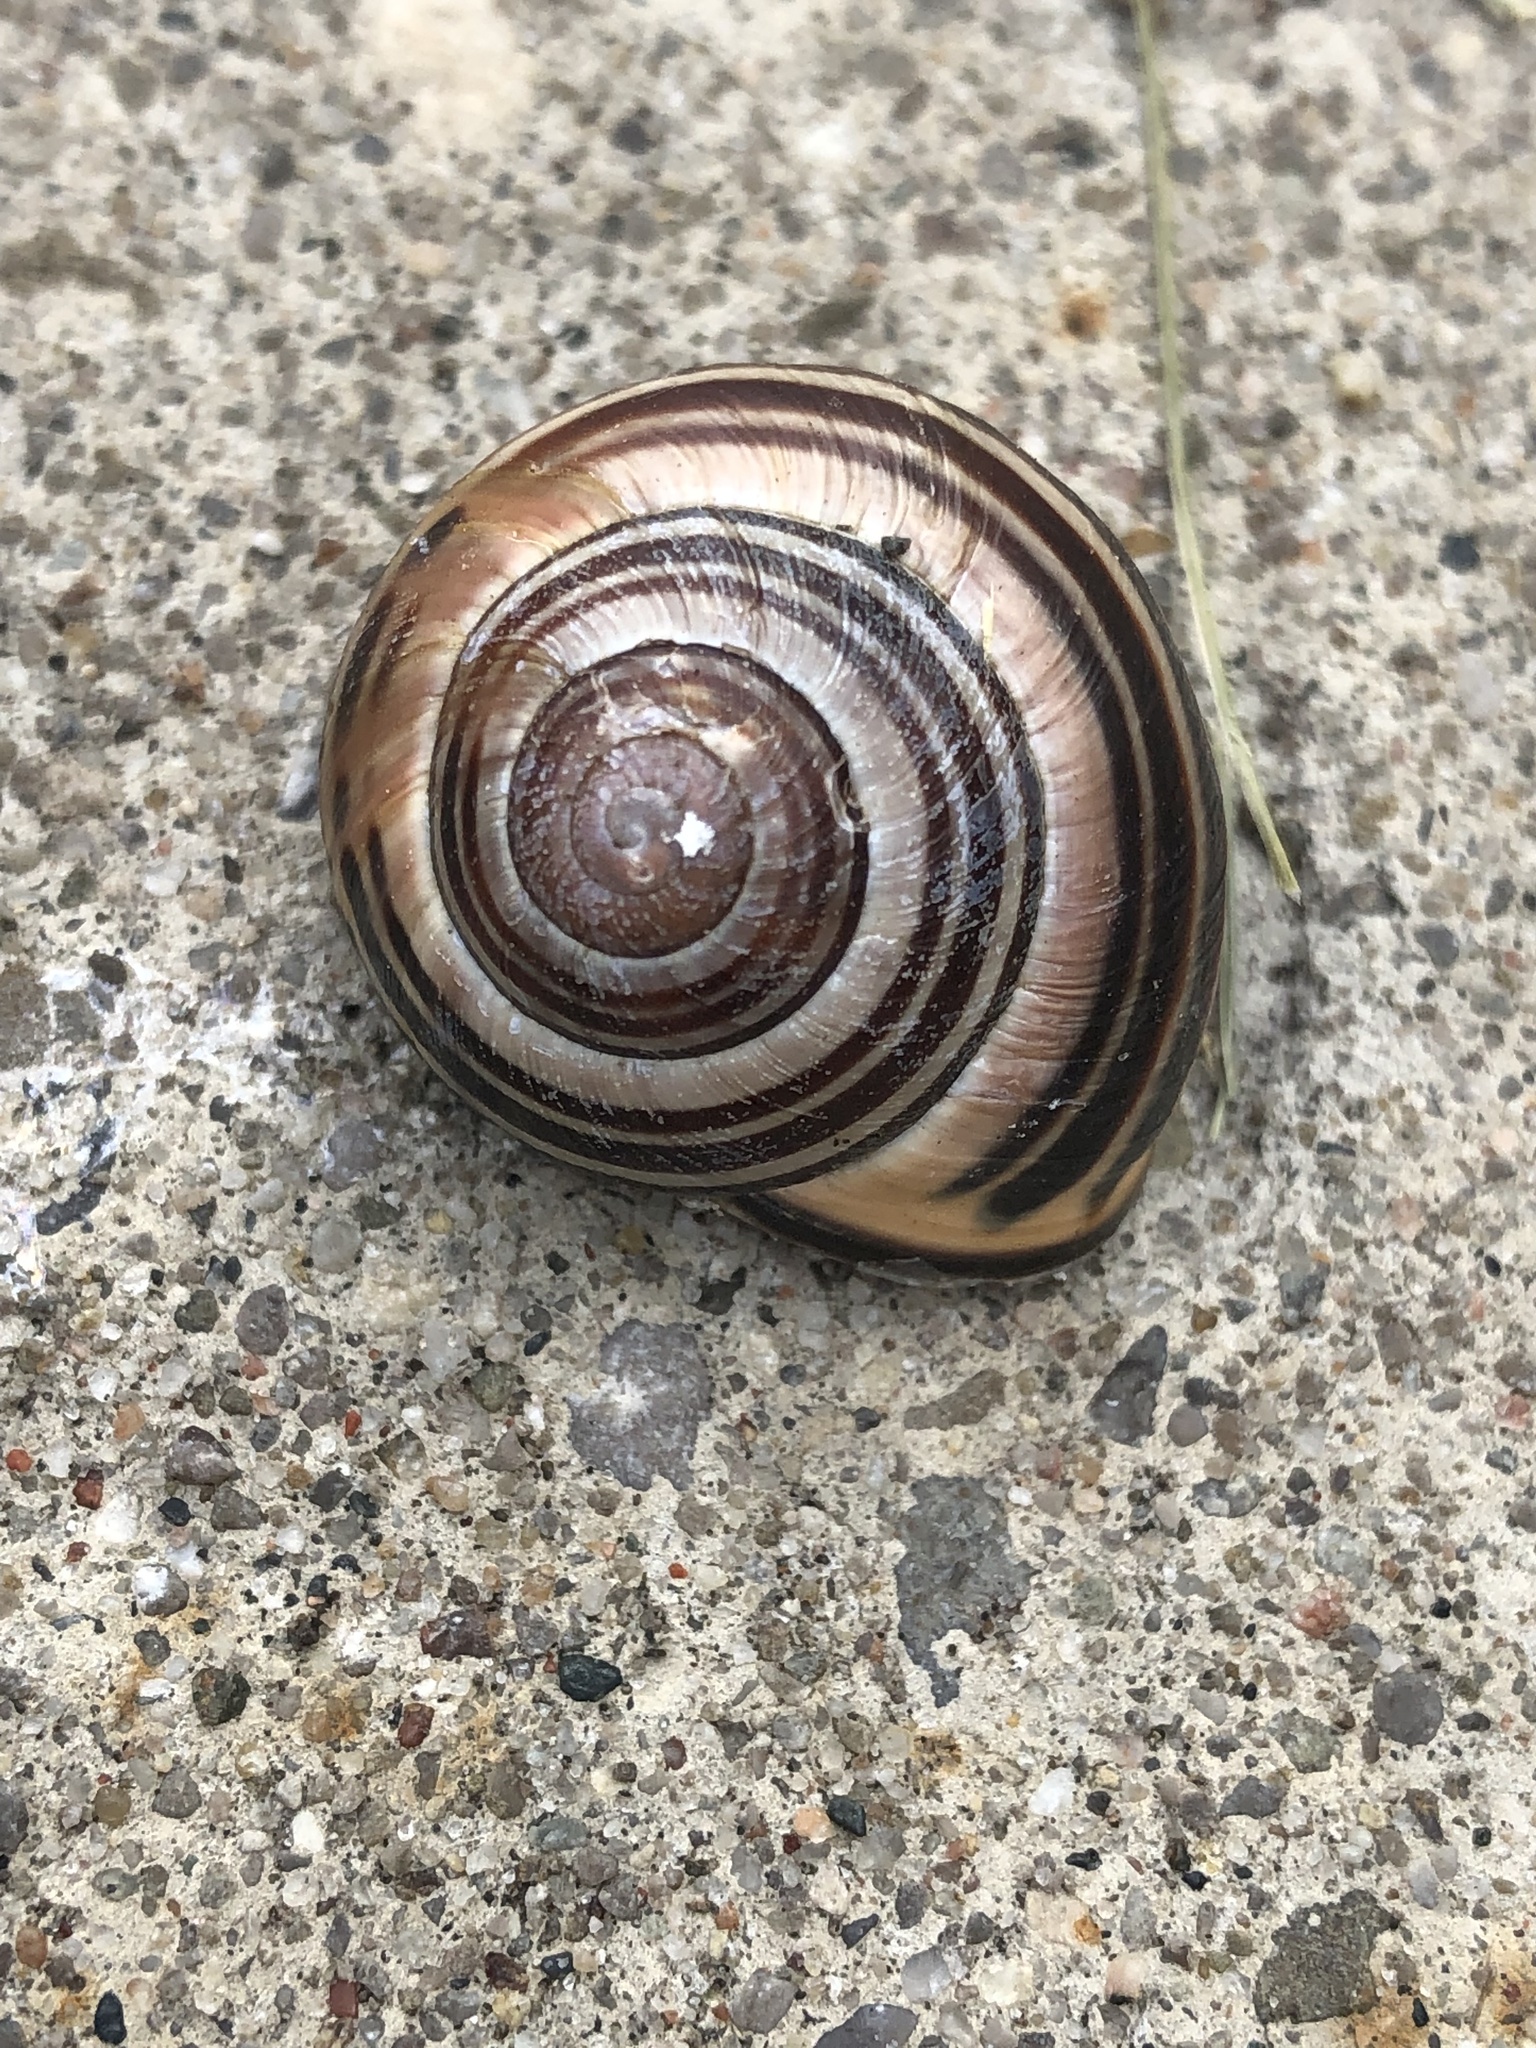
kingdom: Animalia
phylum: Mollusca
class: Gastropoda
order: Stylommatophora
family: Helicidae
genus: Cepaea
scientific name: Cepaea nemoralis
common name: Grovesnail
